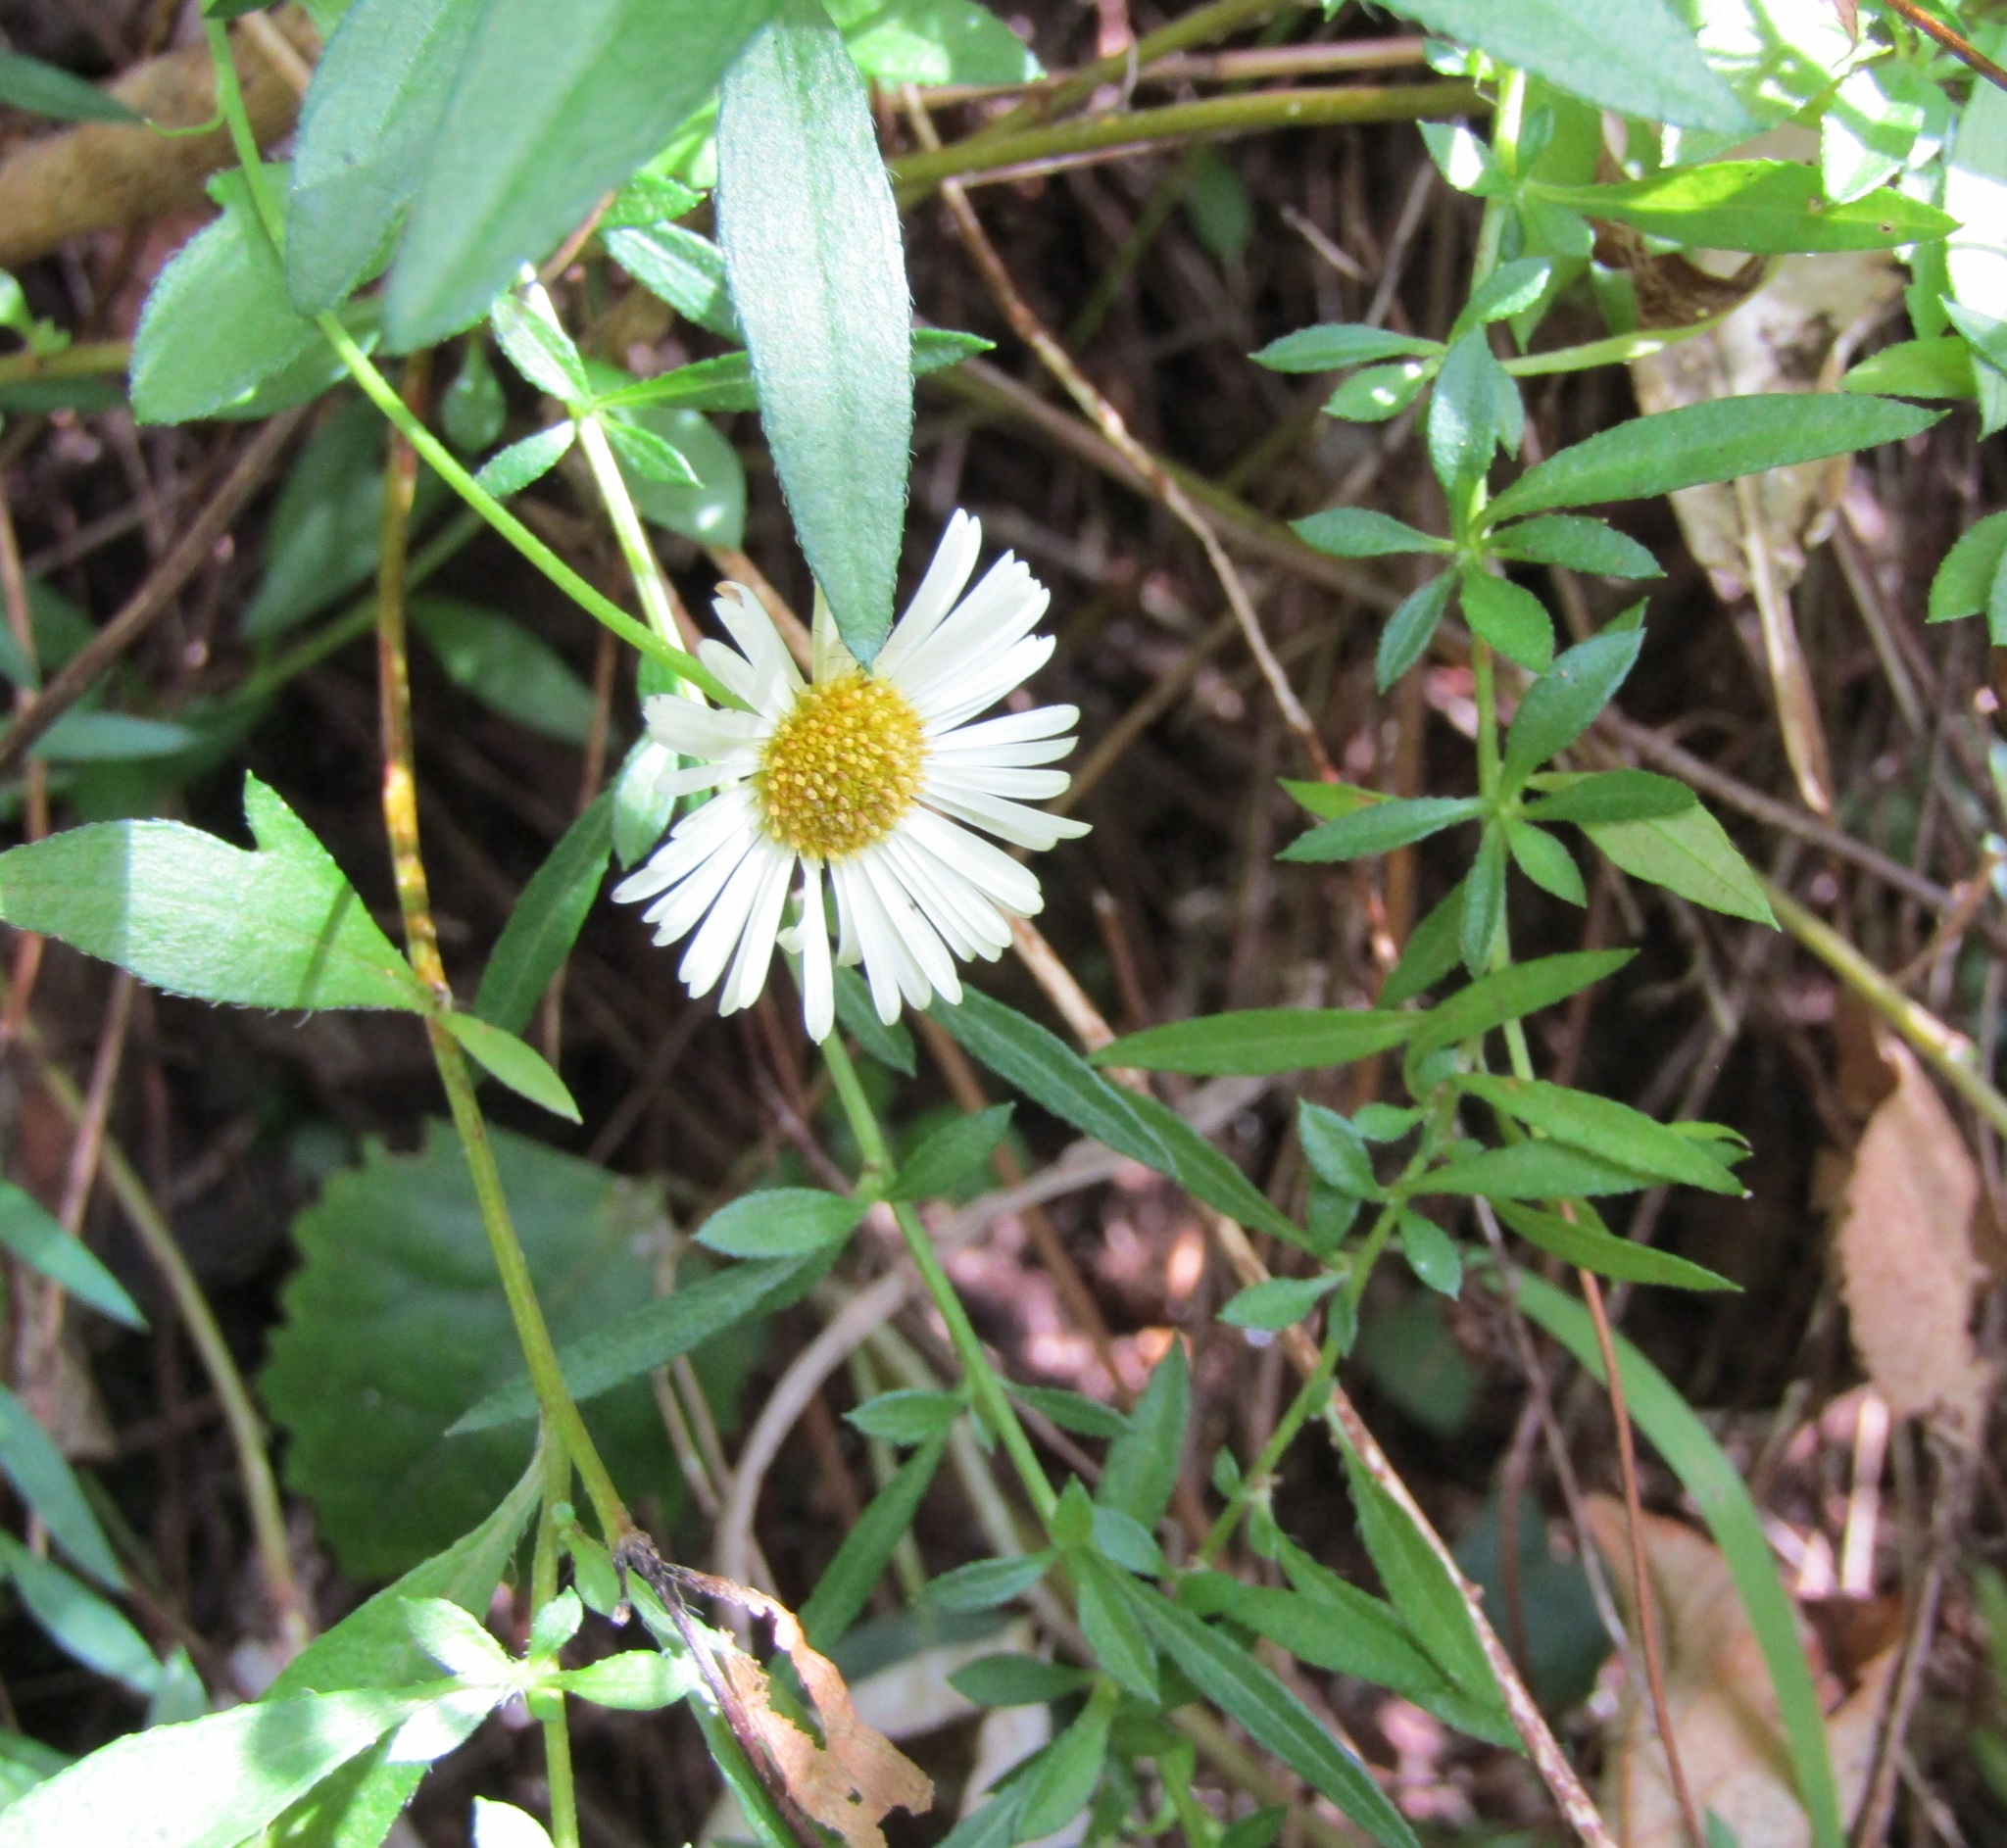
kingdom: Plantae
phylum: Tracheophyta
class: Magnoliopsida
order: Asterales
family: Asteraceae
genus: Erigeron
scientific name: Erigeron karvinskianus
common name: Mexican fleabane
